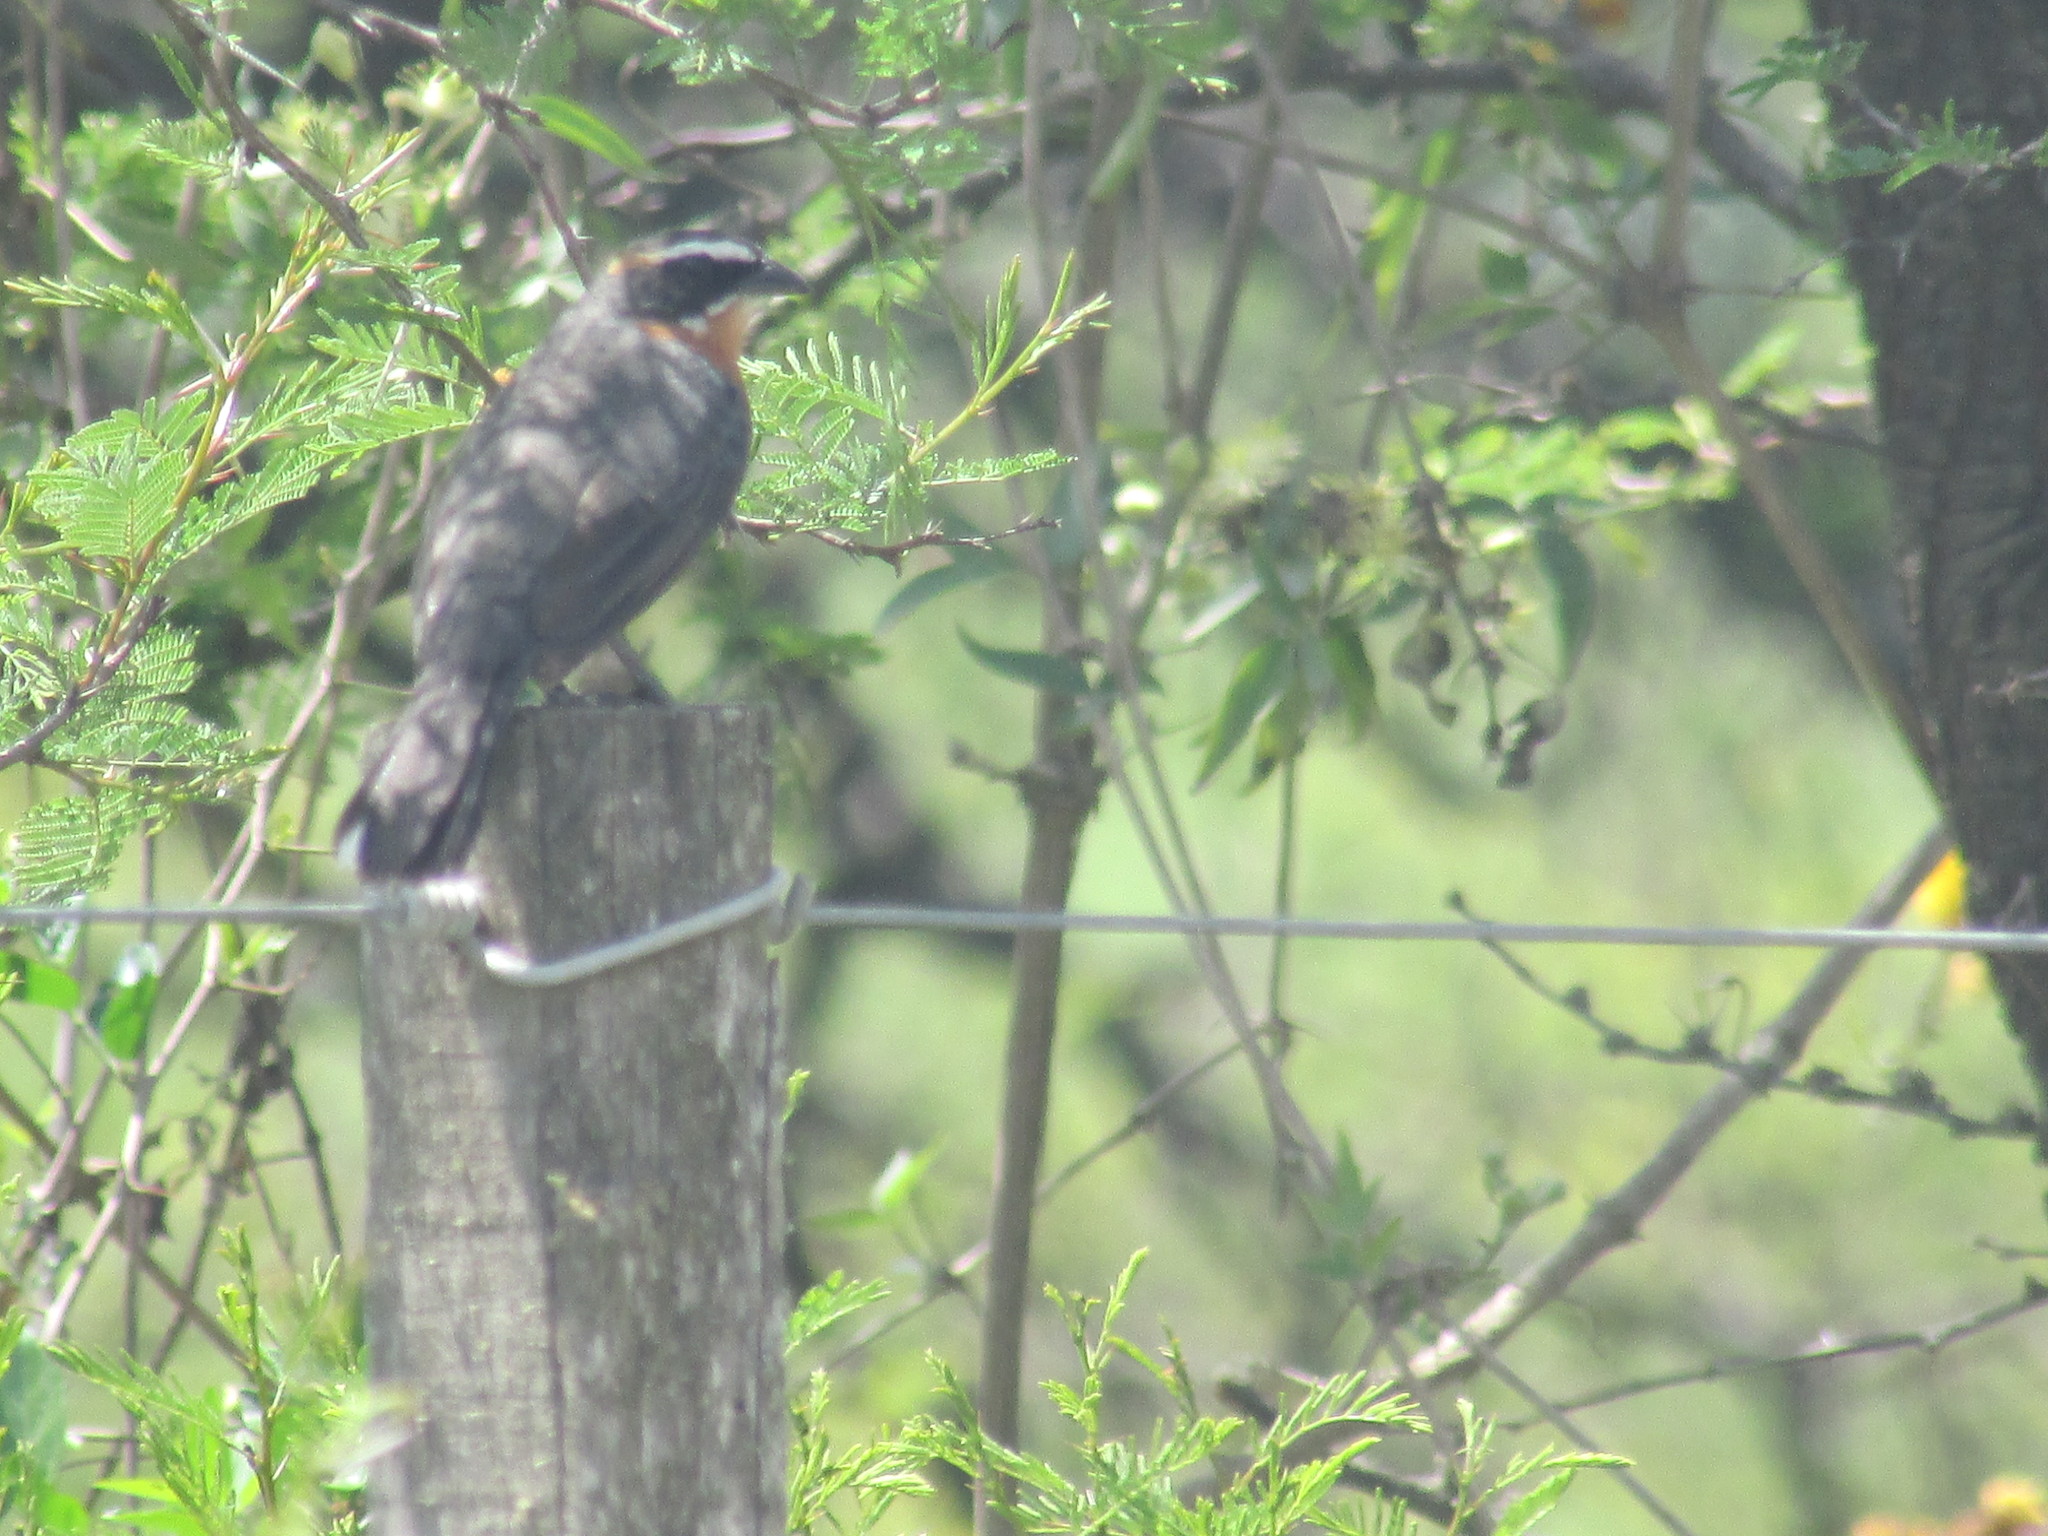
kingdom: Animalia
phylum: Chordata
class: Aves
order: Passeriformes
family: Thraupidae
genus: Poospiza
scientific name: Poospiza nigrorufa
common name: Black-and-rufous warbling finch
